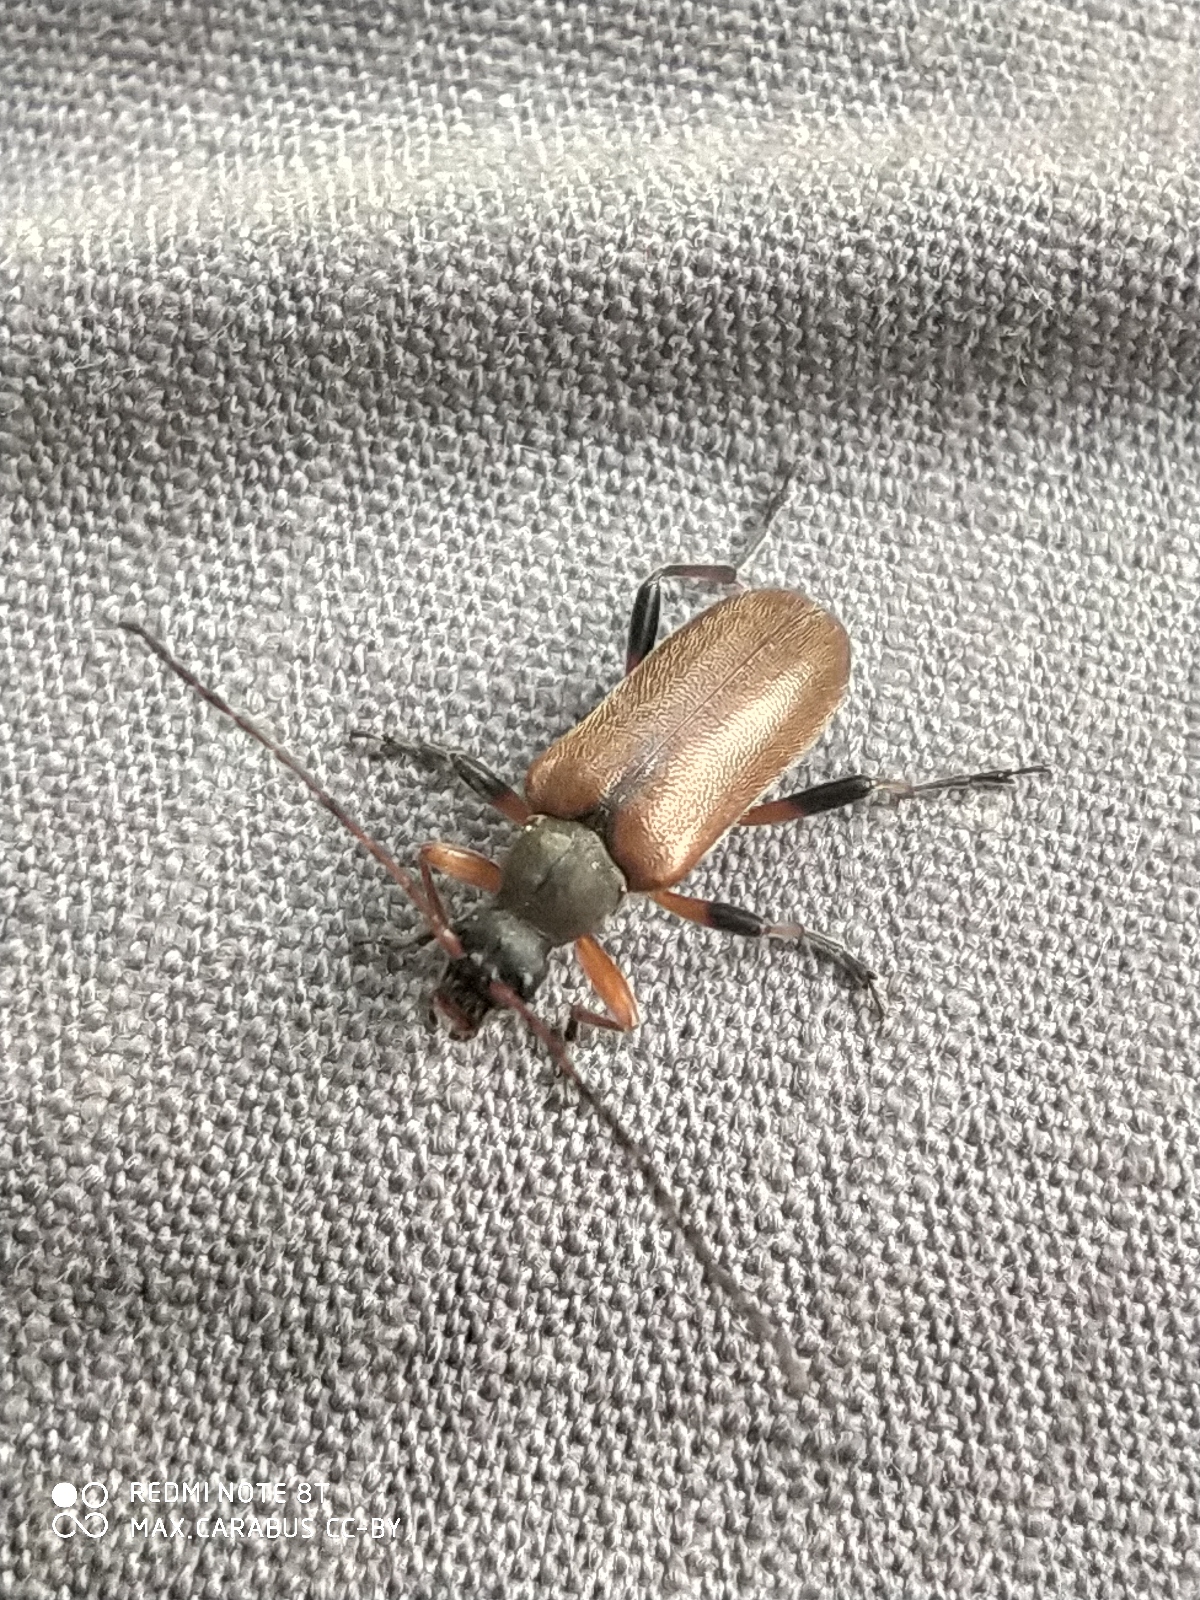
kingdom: Animalia
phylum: Arthropoda
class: Insecta
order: Coleoptera
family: Cerambycidae
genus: Cortodera
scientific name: Cortodera femorata
